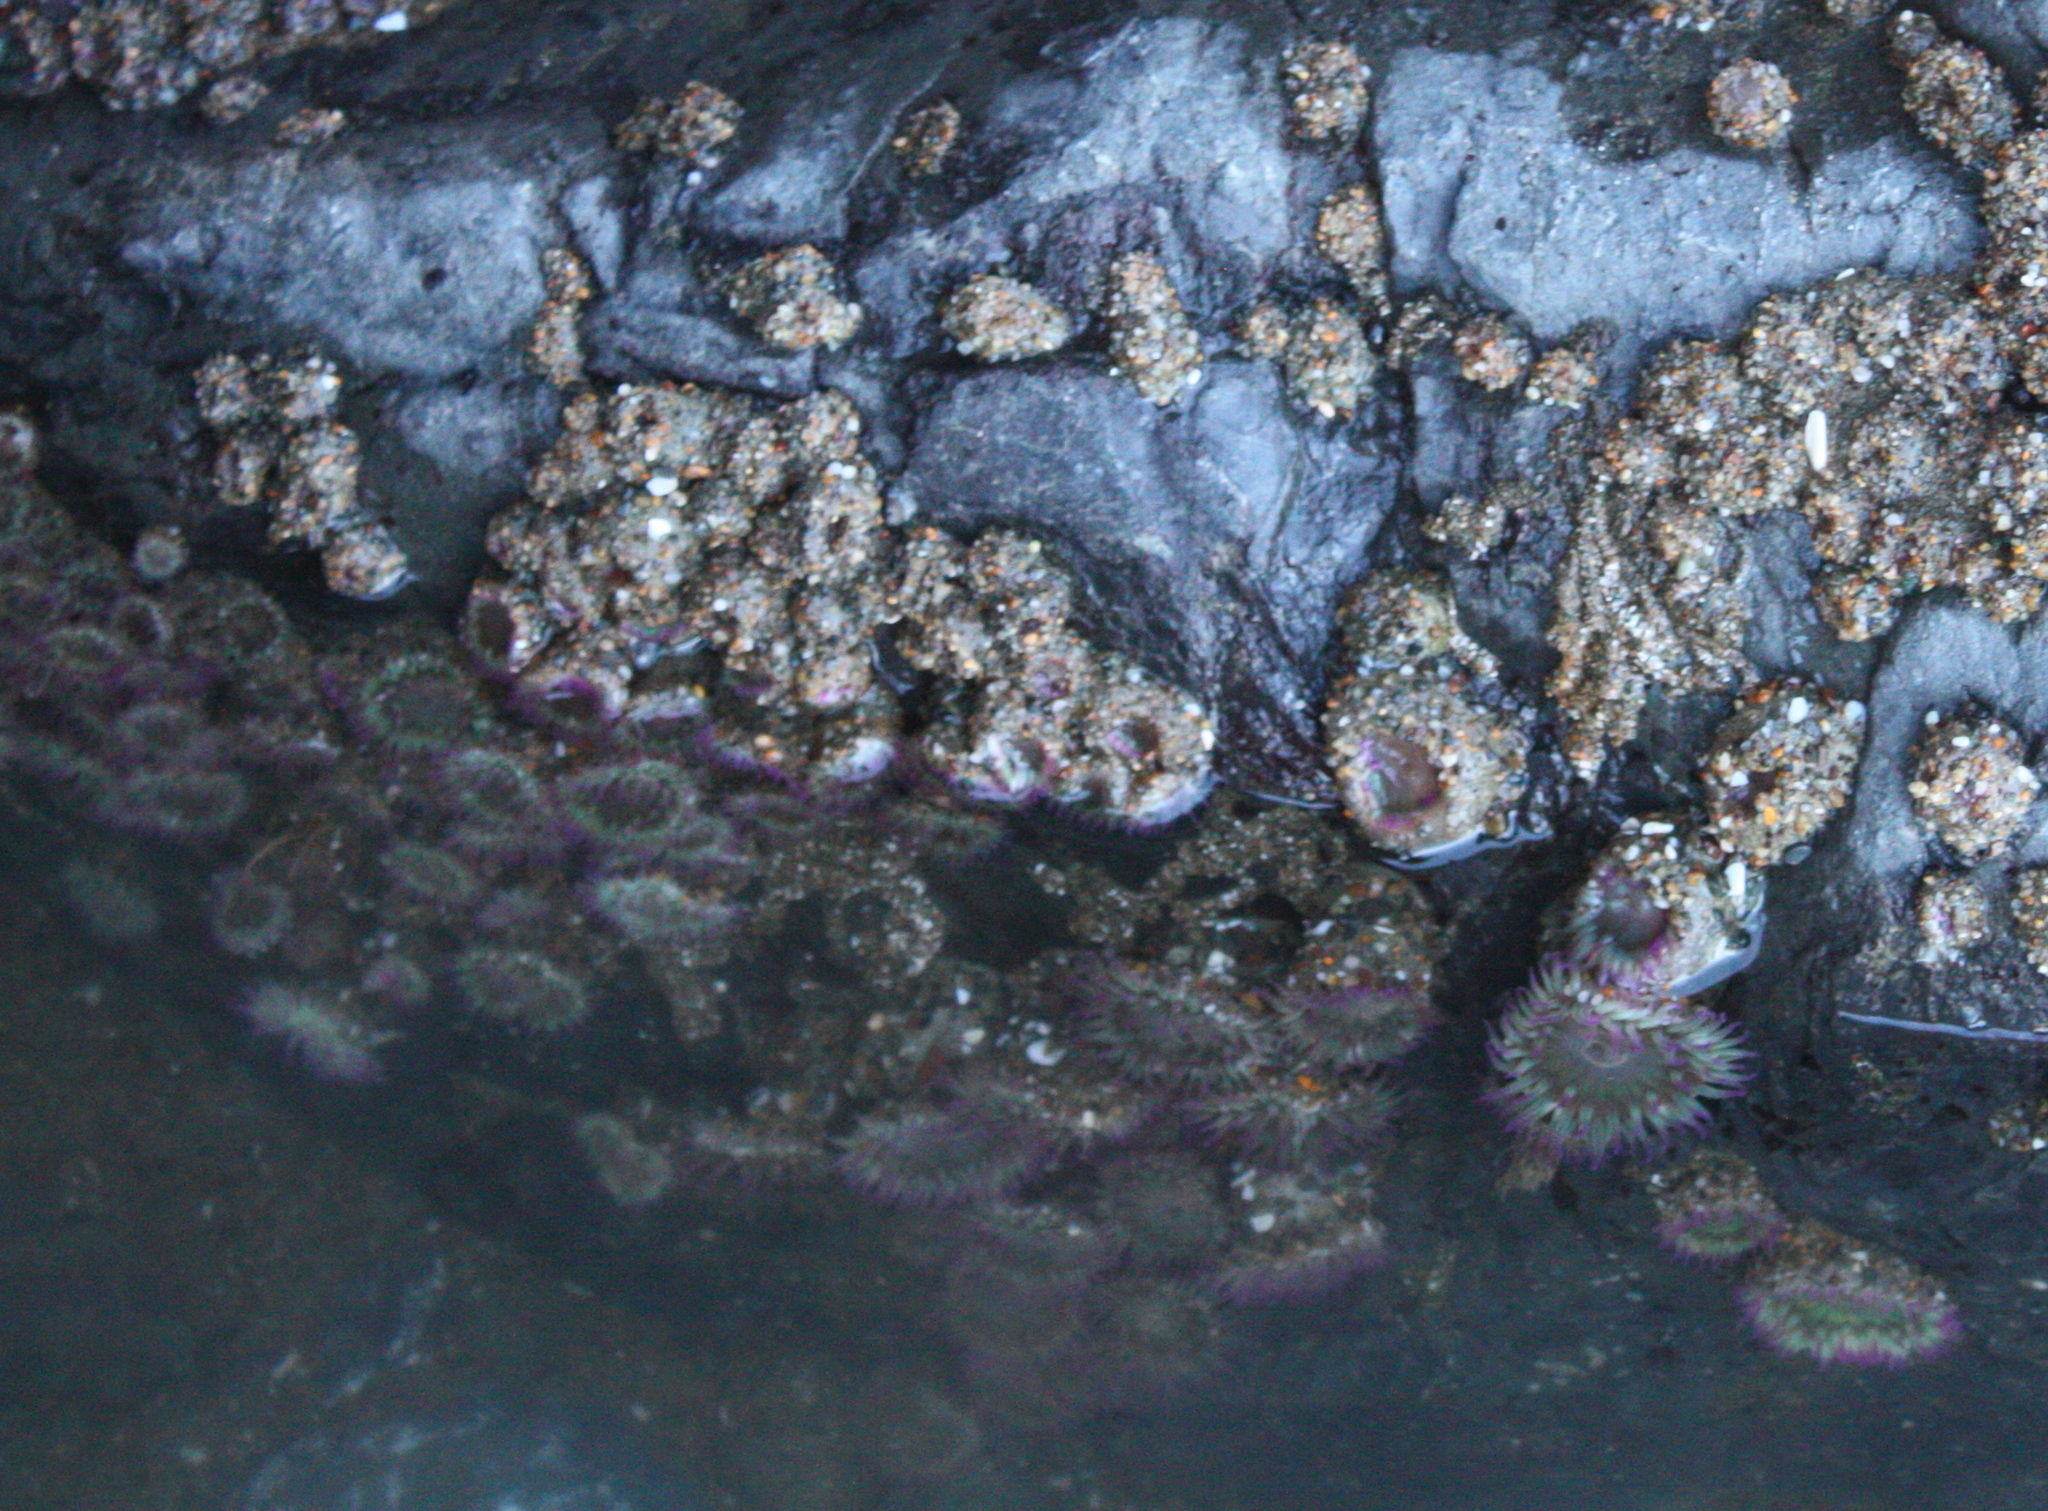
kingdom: Animalia
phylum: Cnidaria
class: Anthozoa
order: Actiniaria
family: Actiniidae
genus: Anthopleura
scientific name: Anthopleura elegantissima
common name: Clonal anemone
